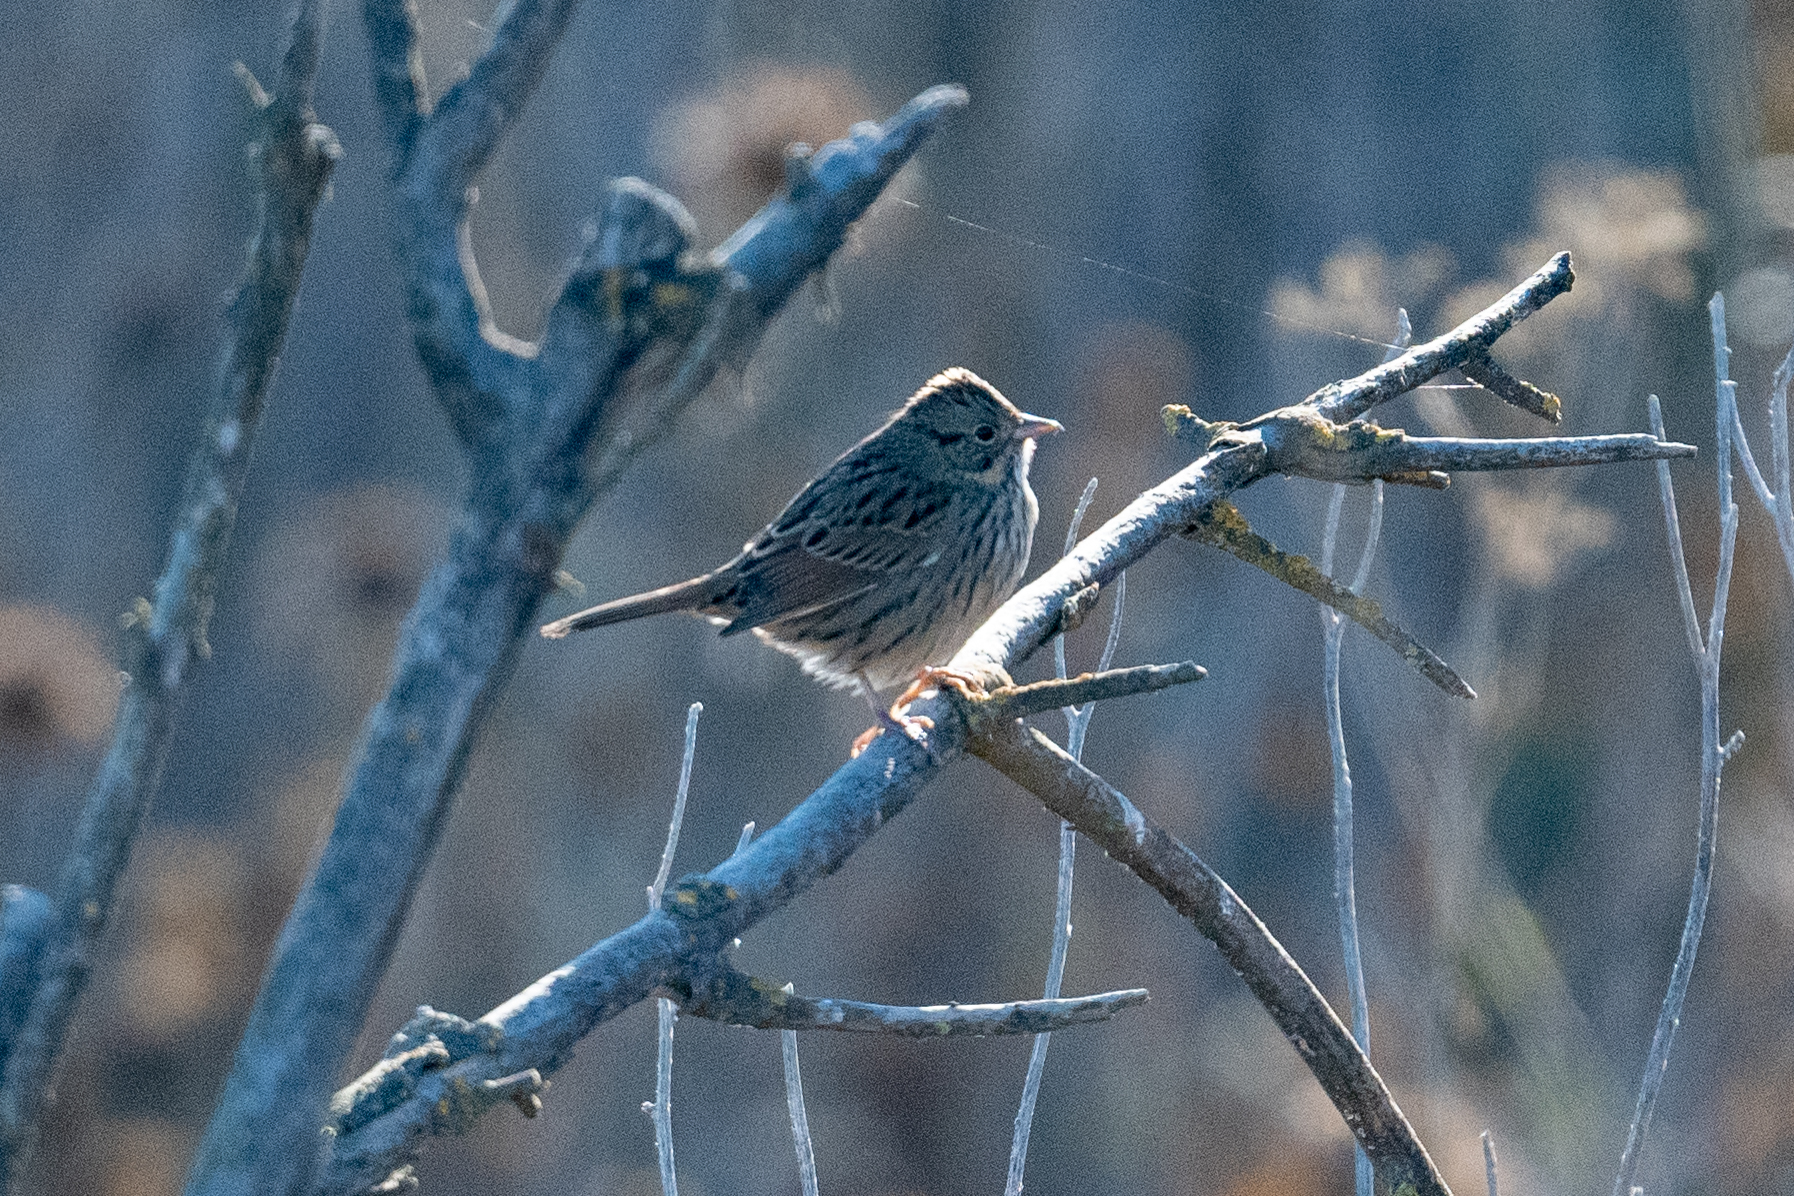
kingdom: Animalia
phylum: Chordata
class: Aves
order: Passeriformes
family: Passerellidae
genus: Melospiza
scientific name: Melospiza lincolnii
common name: Lincoln's sparrow
